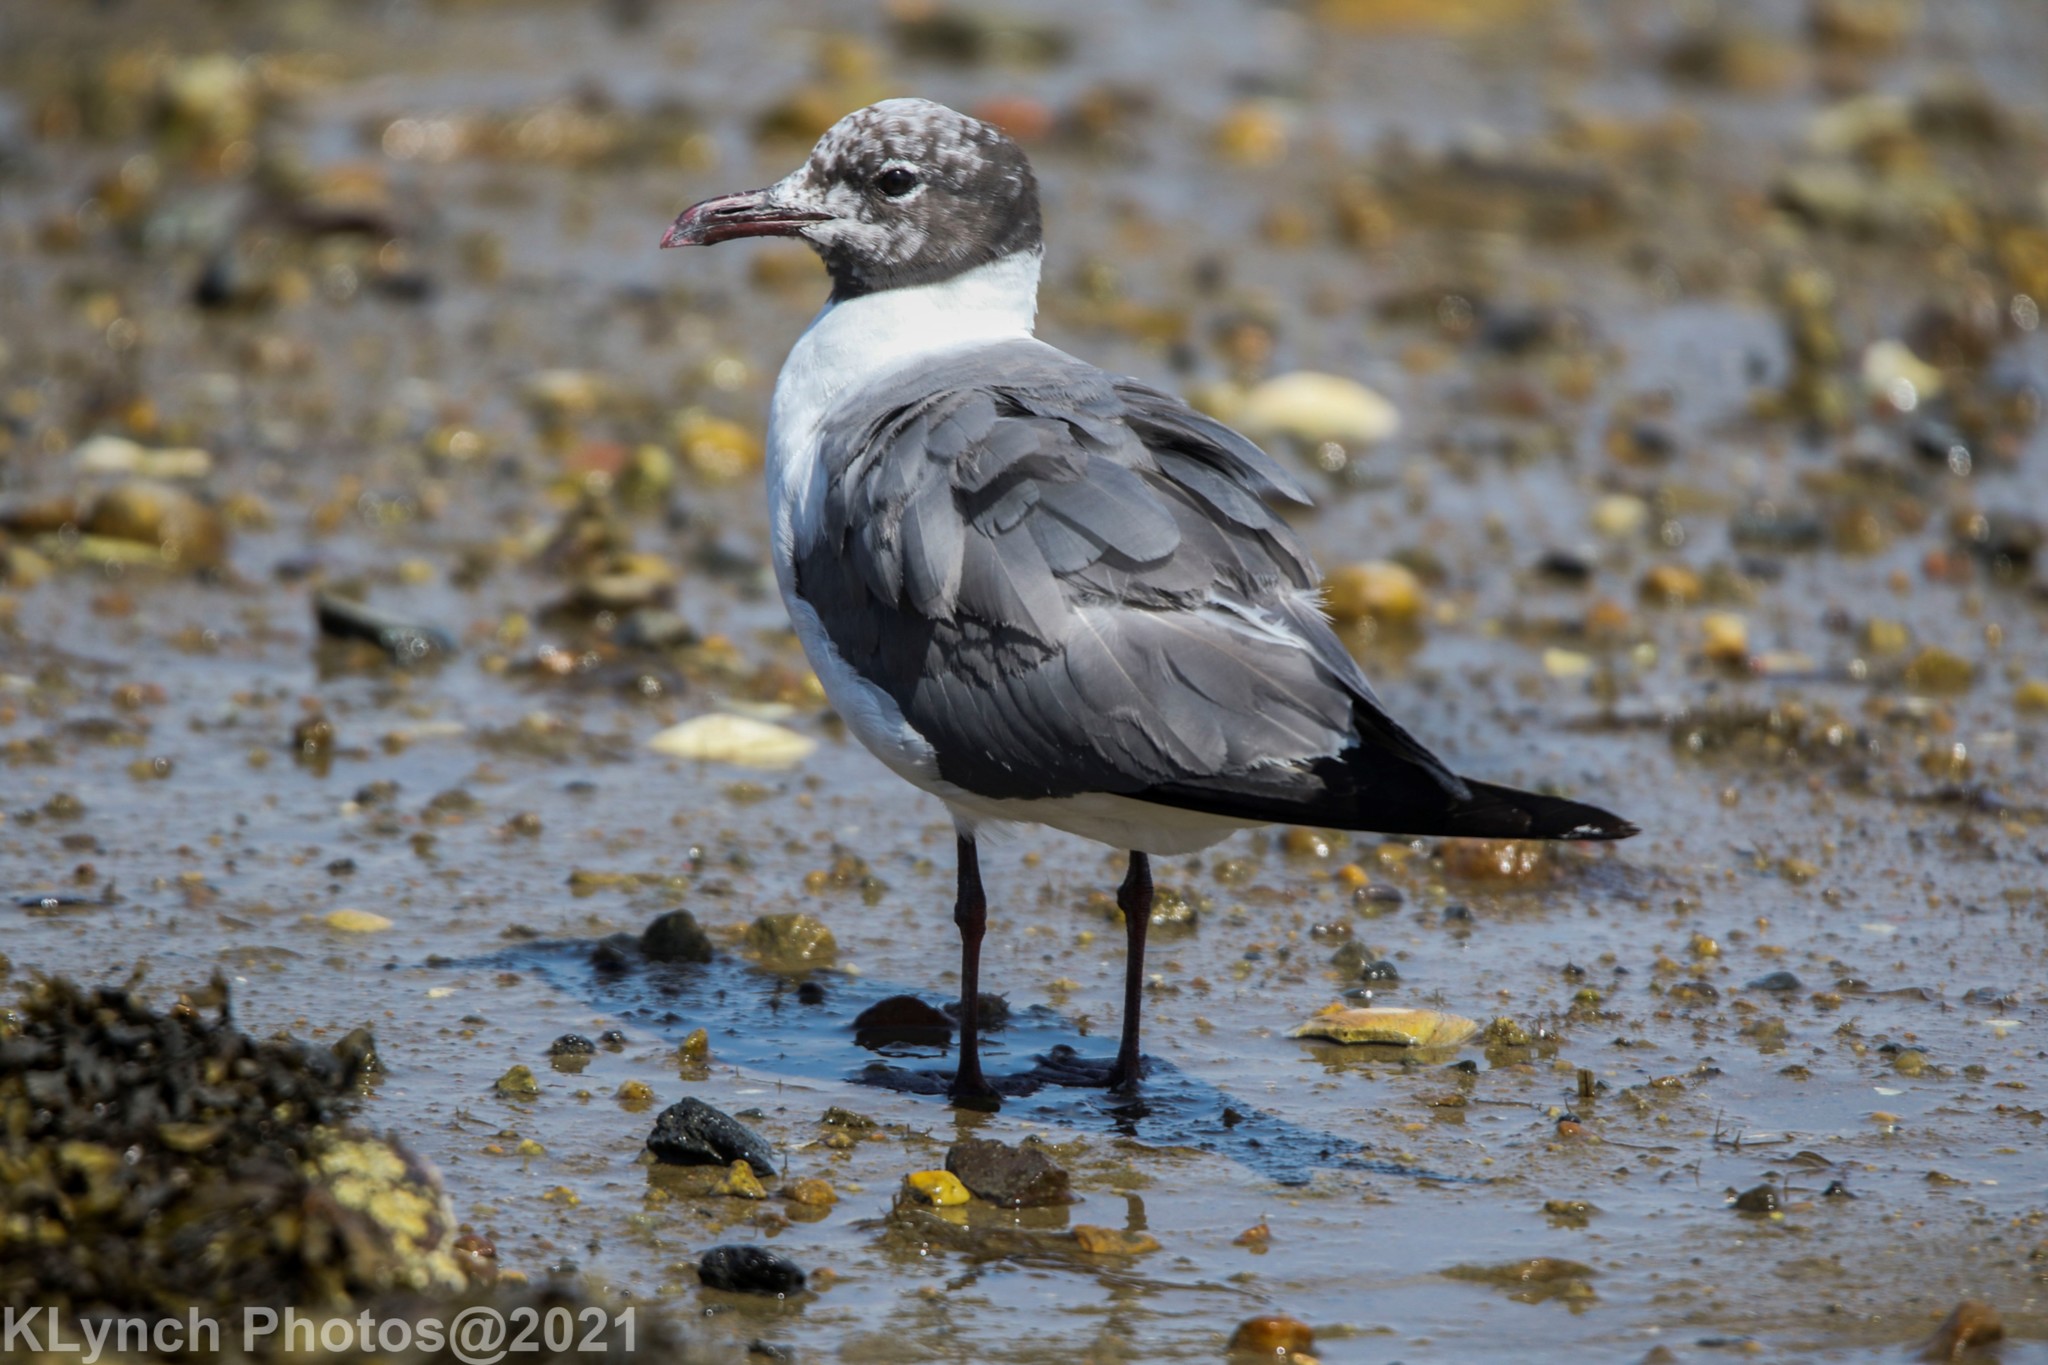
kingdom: Animalia
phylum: Chordata
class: Aves
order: Charadriiformes
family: Laridae
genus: Leucophaeus
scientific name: Leucophaeus atricilla
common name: Laughing gull
